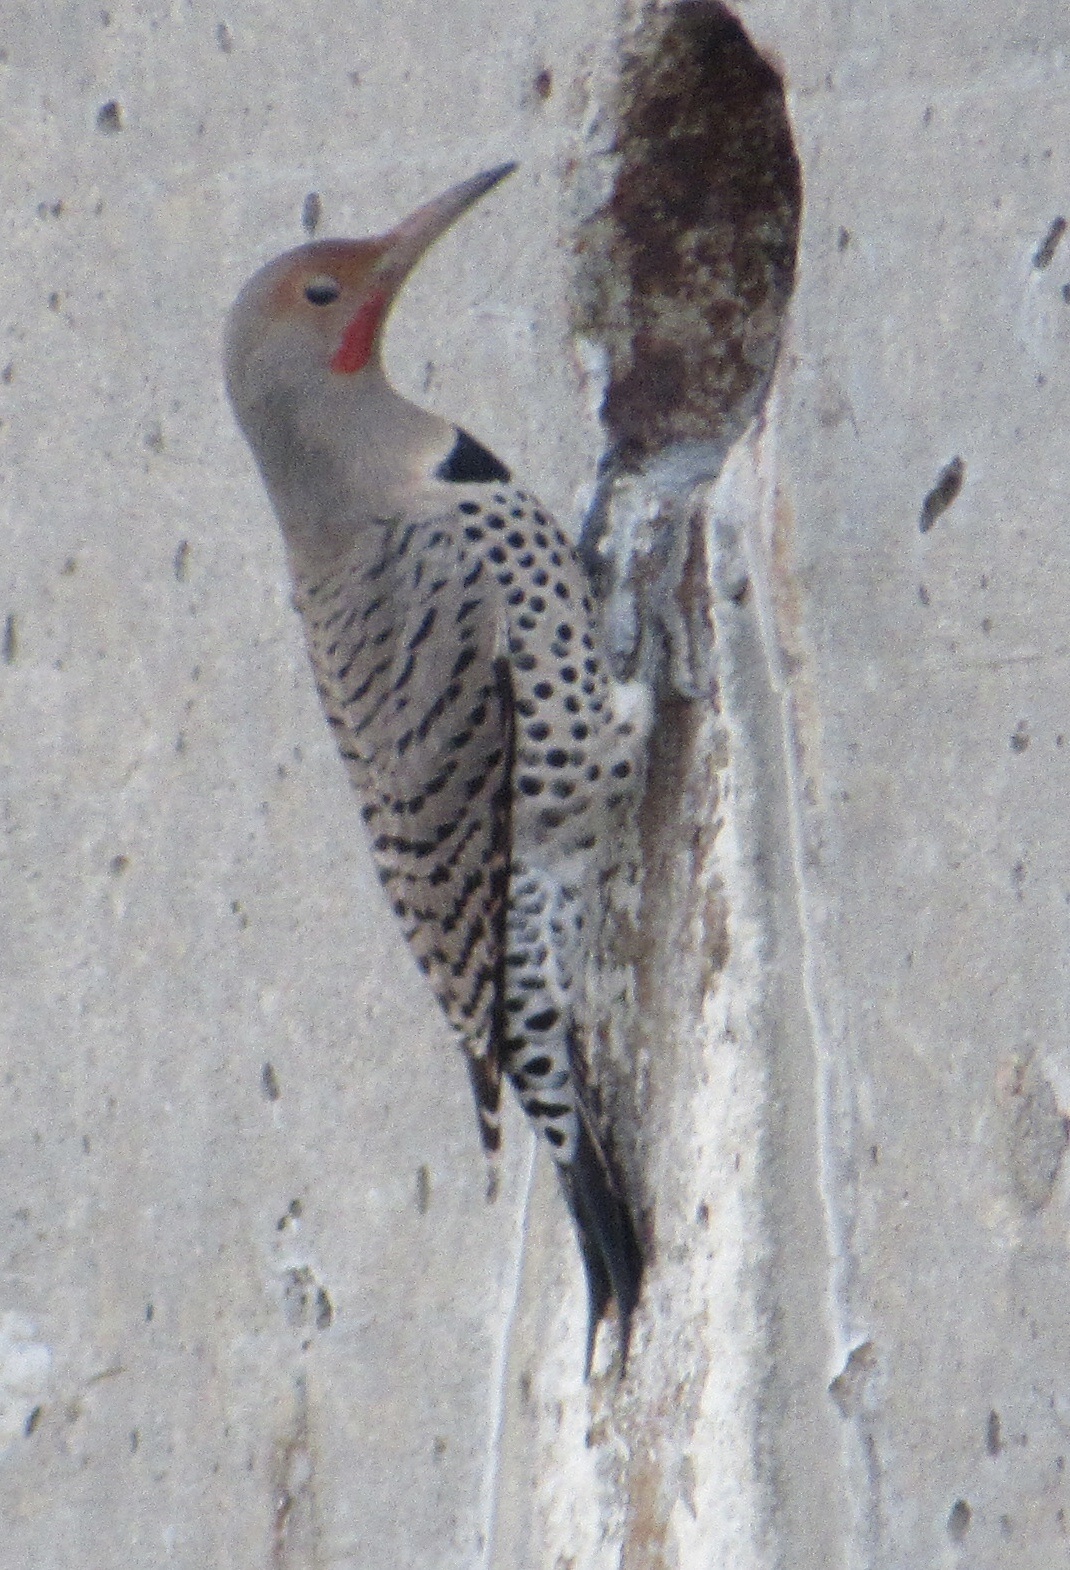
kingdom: Animalia
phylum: Chordata
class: Aves
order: Piciformes
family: Picidae
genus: Colaptes
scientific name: Colaptes auratus
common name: Northern flicker
